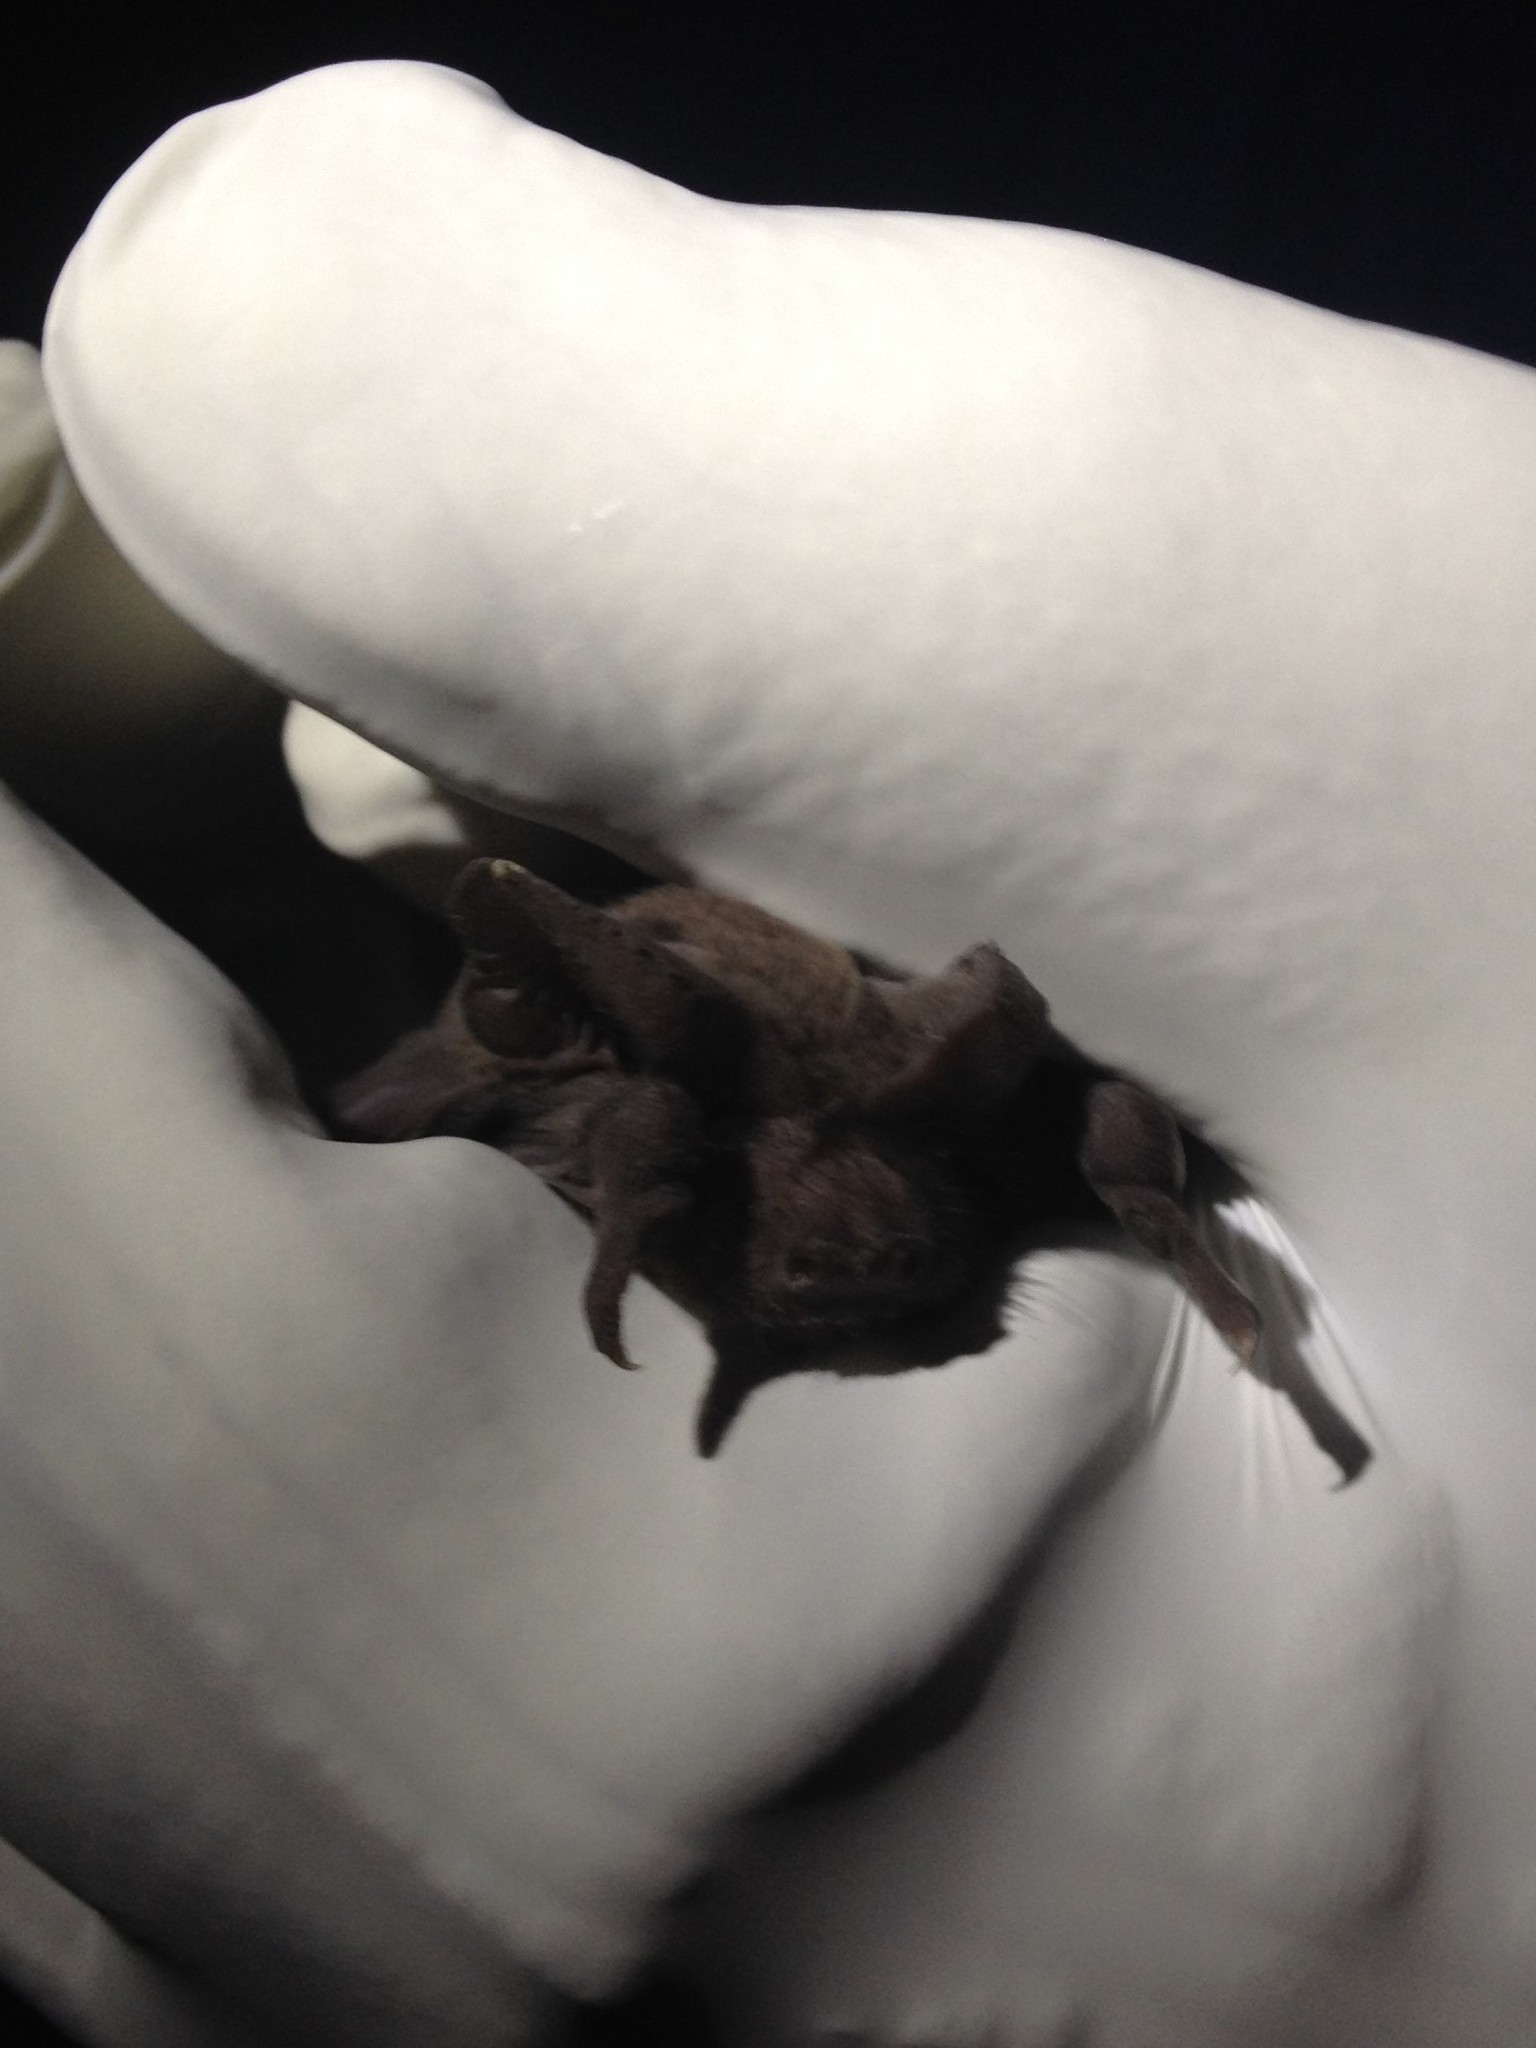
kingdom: Animalia
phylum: Chordata
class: Mammalia
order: Chiroptera
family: Molossidae
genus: Tadarida
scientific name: Tadarida brasiliensis
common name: Mexican free-tailed bat
